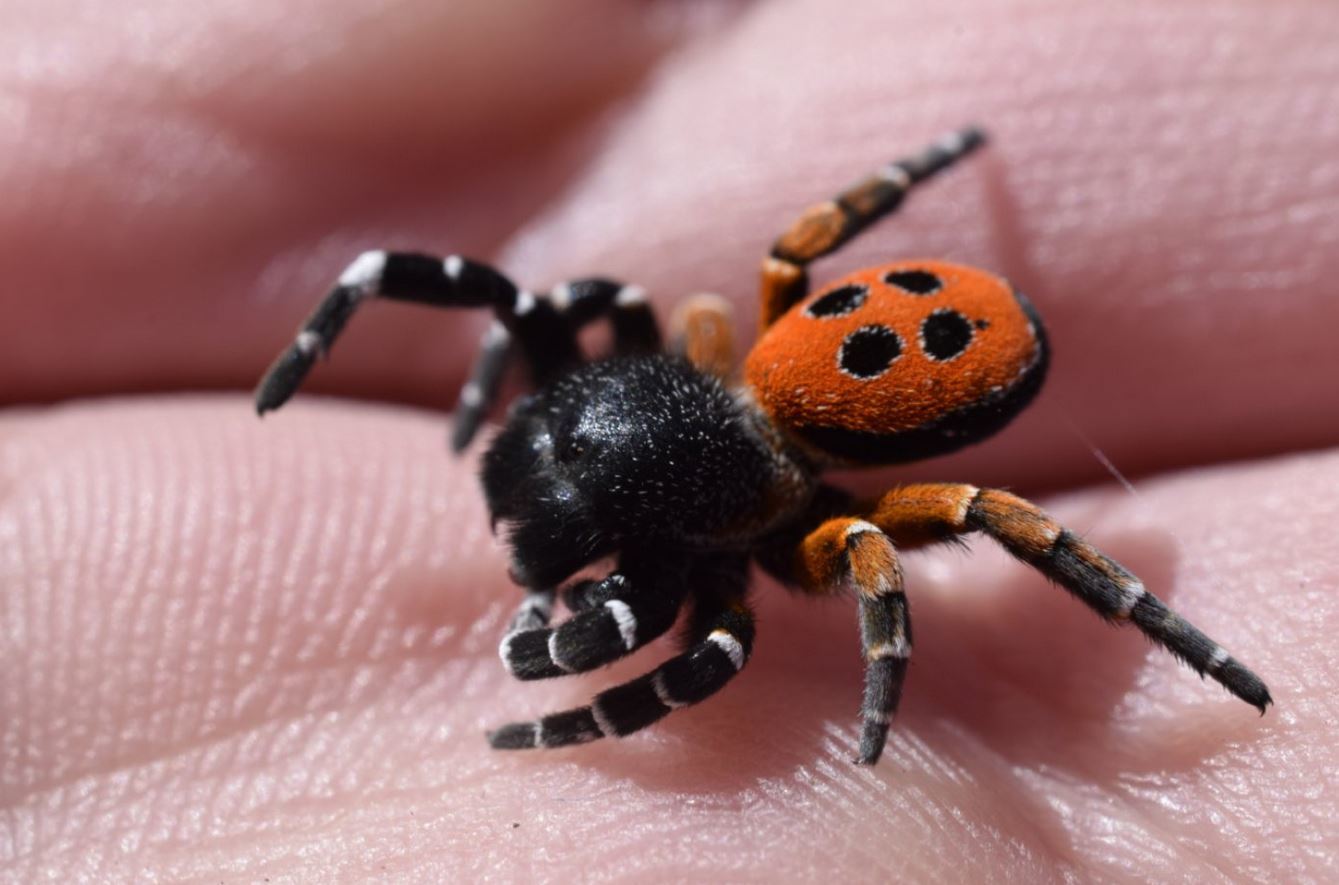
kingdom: Animalia
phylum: Arthropoda
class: Arachnida
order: Araneae
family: Eresidae
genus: Eresus
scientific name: Eresus kollari
